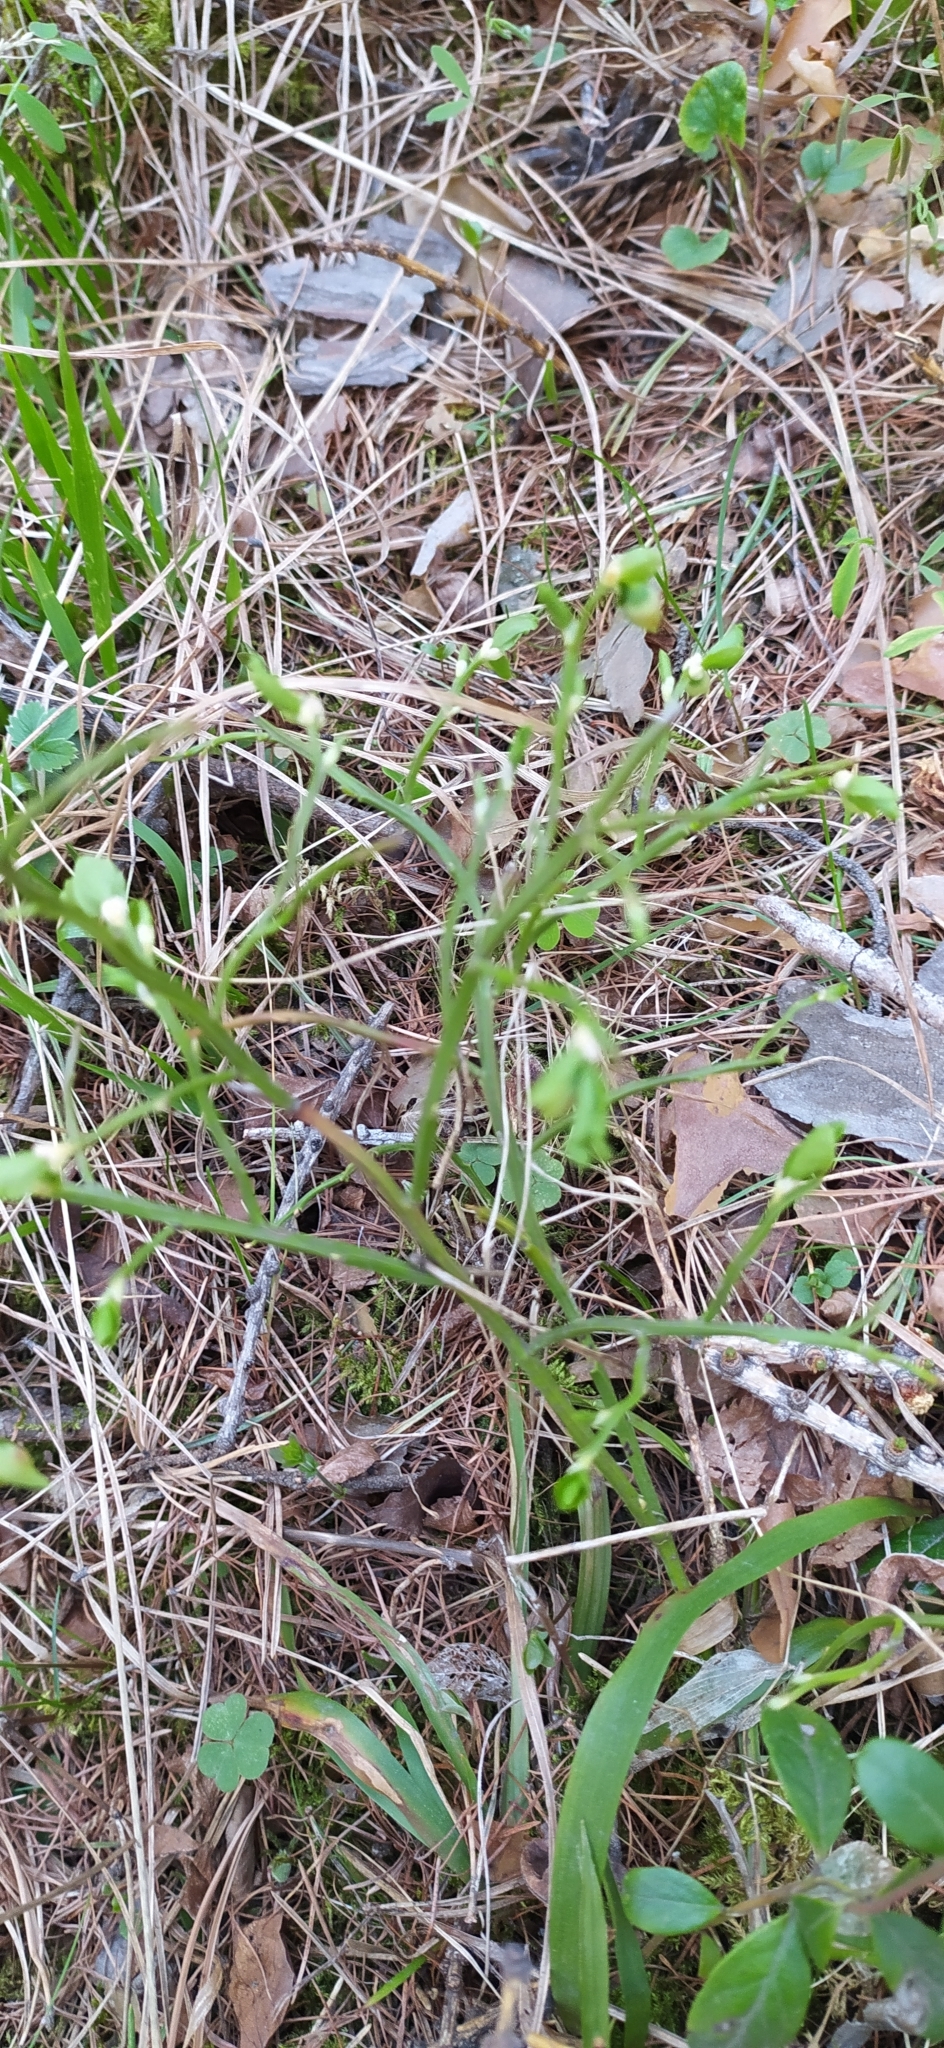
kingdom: Plantae
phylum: Tracheophyta
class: Magnoliopsida
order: Ericales
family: Ericaceae
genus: Vaccinium
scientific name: Vaccinium myrtillus
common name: Bilberry
